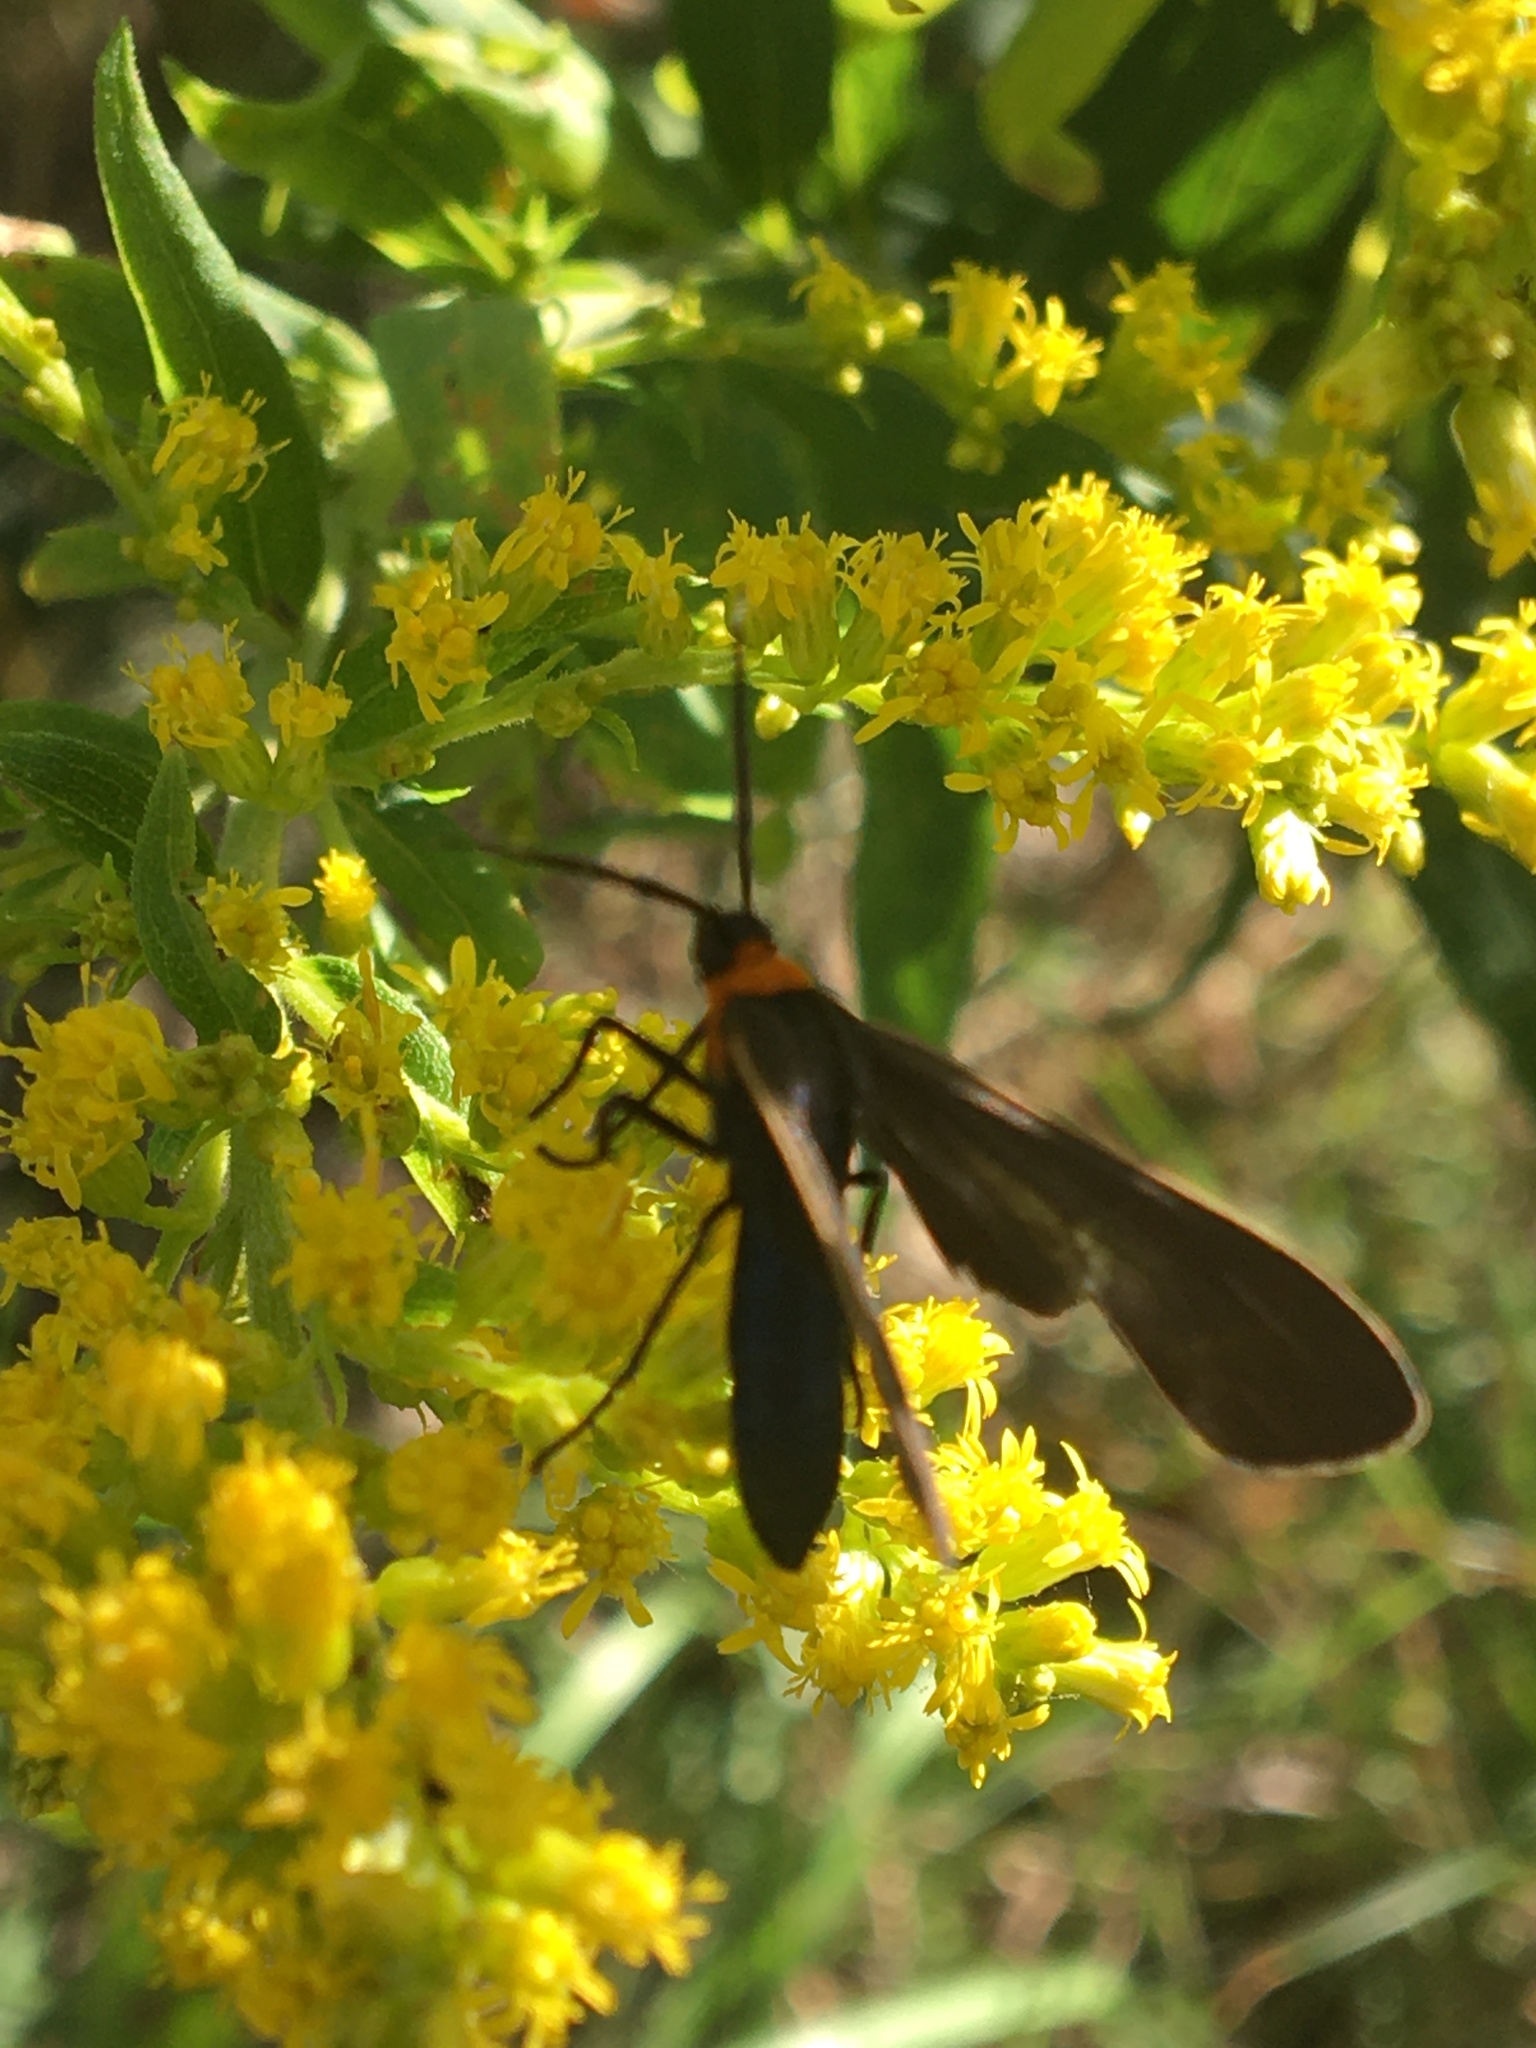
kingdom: Animalia
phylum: Arthropoda
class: Insecta
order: Lepidoptera
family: Erebidae
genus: Cisseps
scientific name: Cisseps fulvicollis
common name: Yellow-collared scape moth
